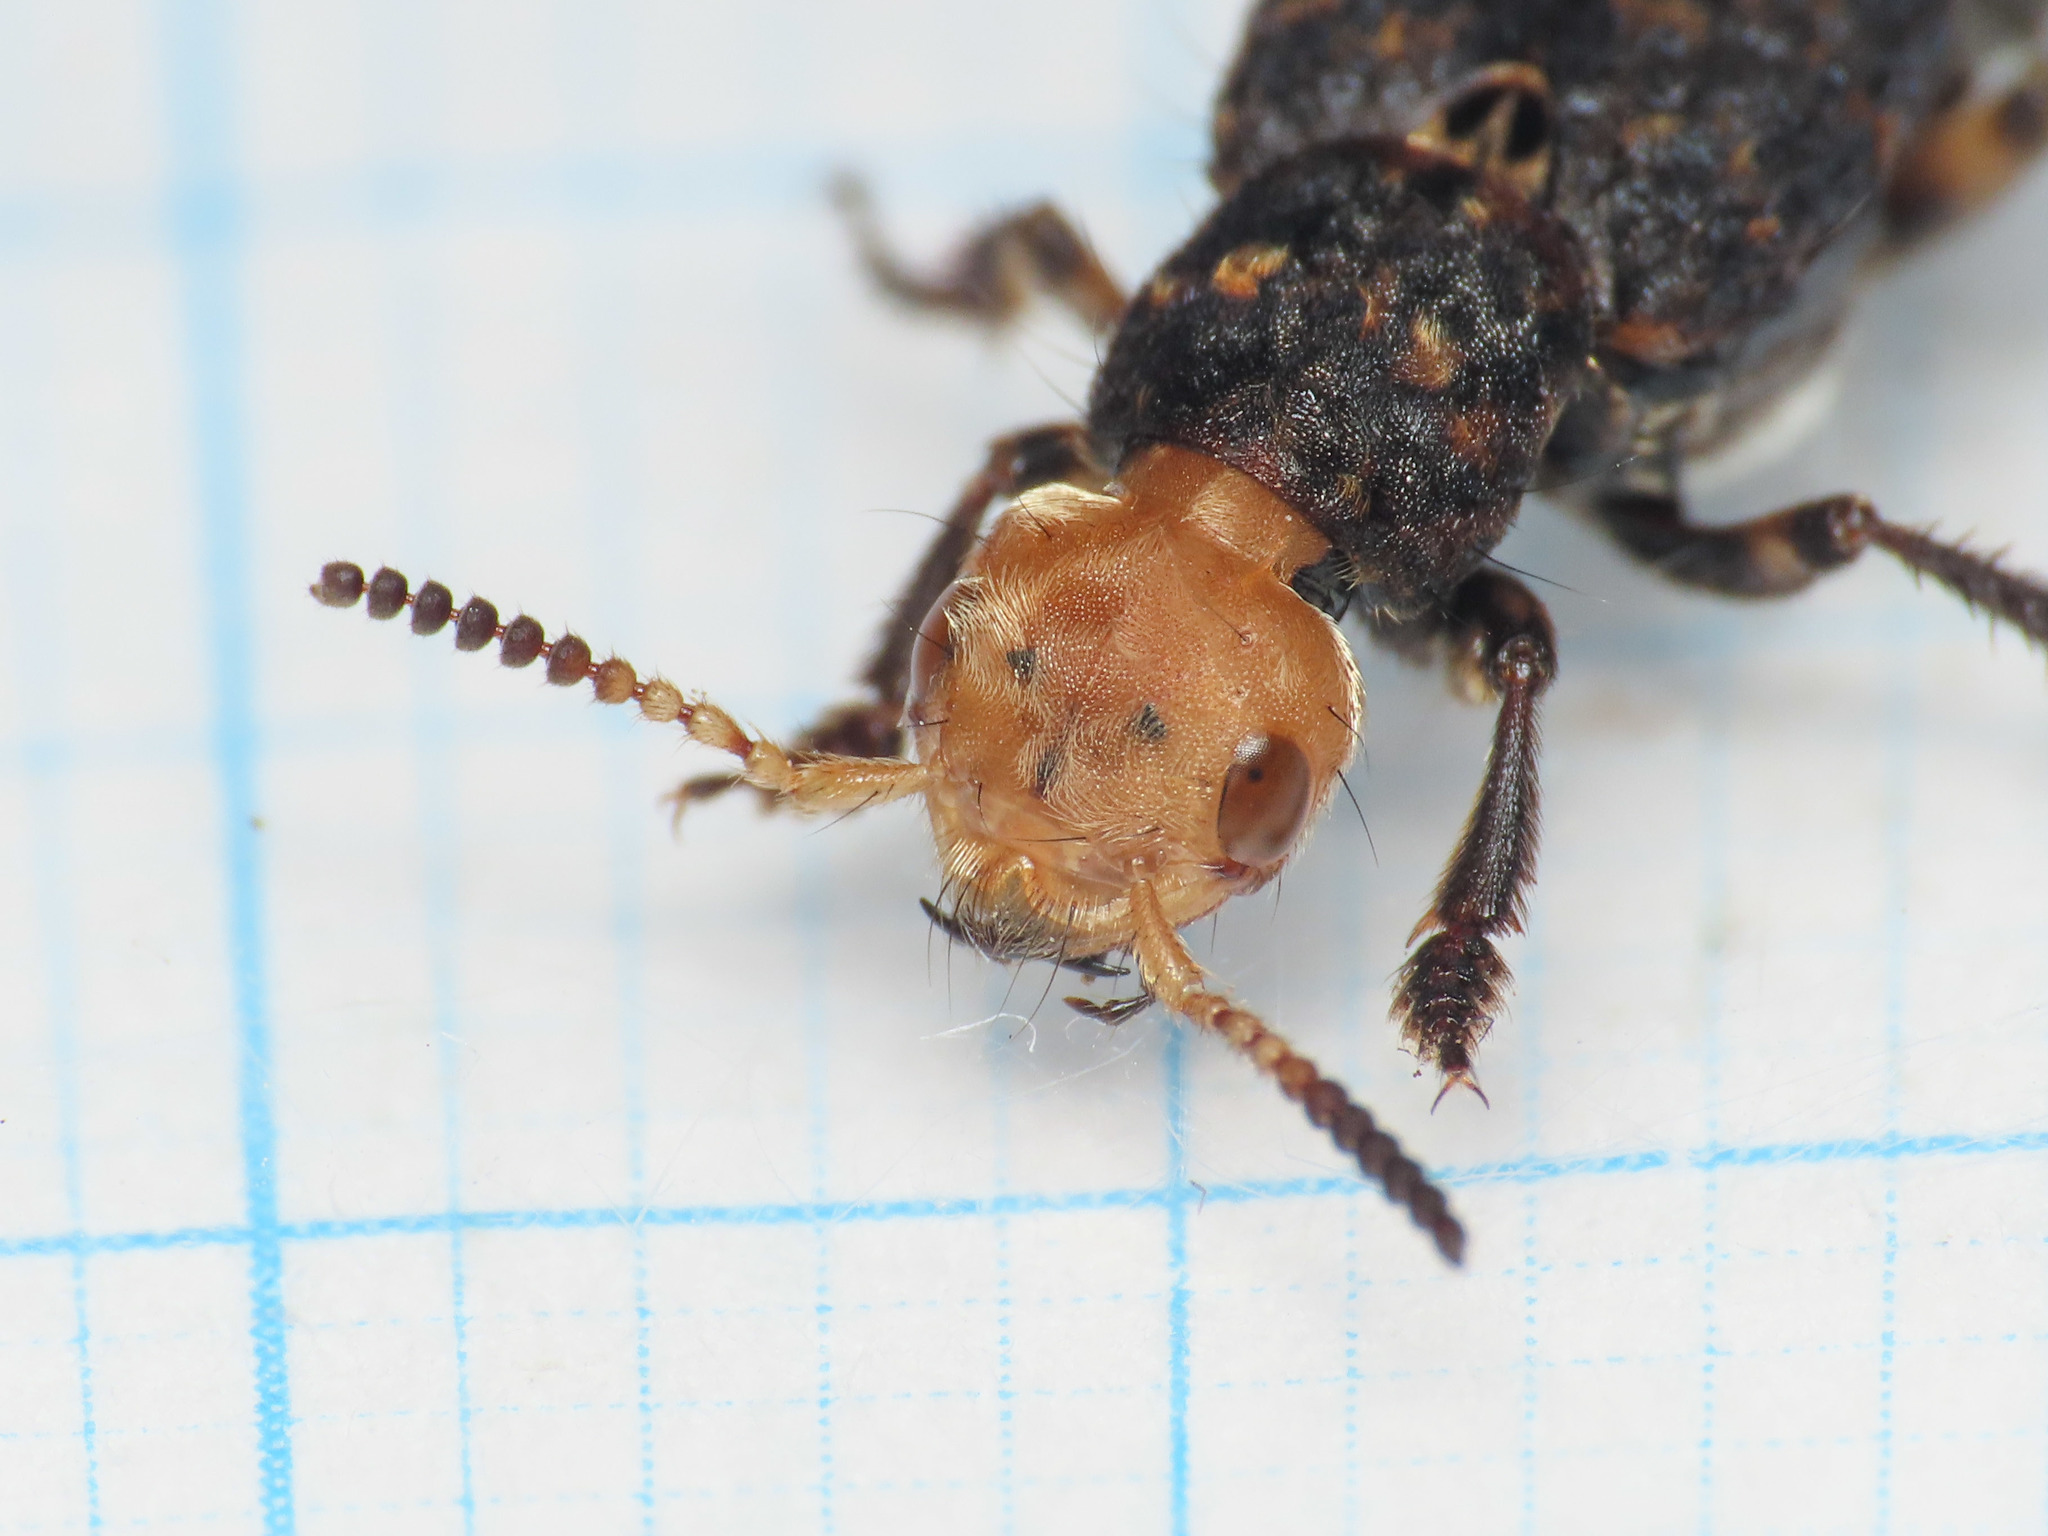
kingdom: Animalia
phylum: Arthropoda
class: Insecta
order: Coleoptera
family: Staphylinidae
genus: Dinothenarus
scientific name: Dinothenarus flavocephalus
